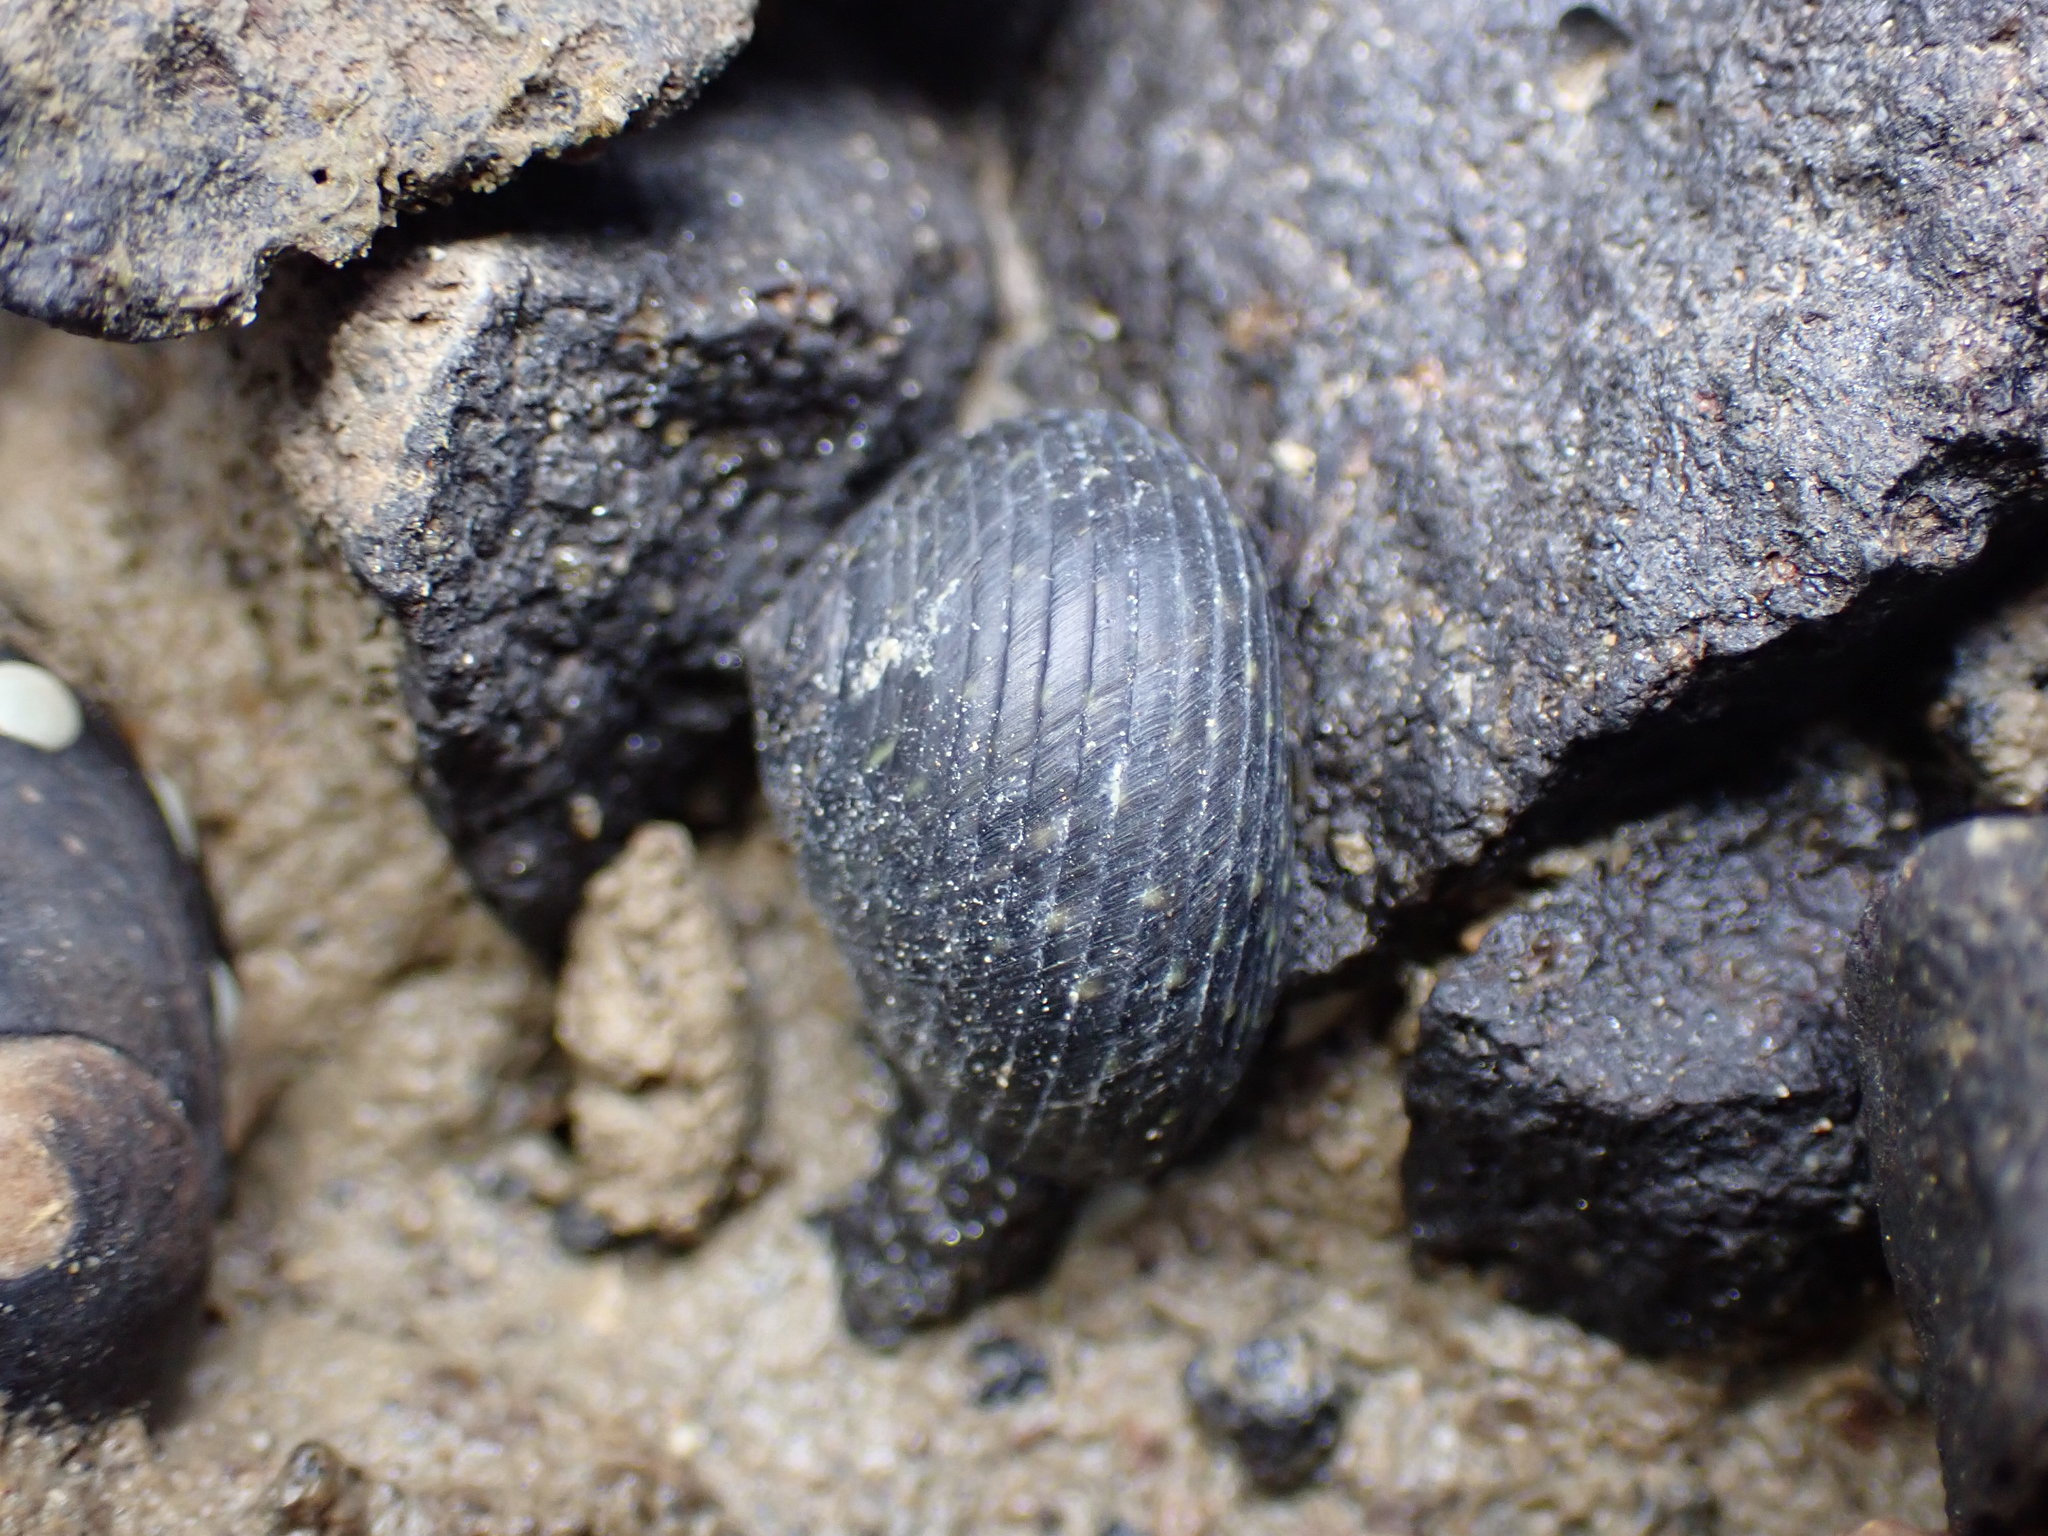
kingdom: Animalia
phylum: Mollusca
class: Gastropoda
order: Trochida
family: Trochidae
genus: Diloma
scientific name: Diloma zelandicum
